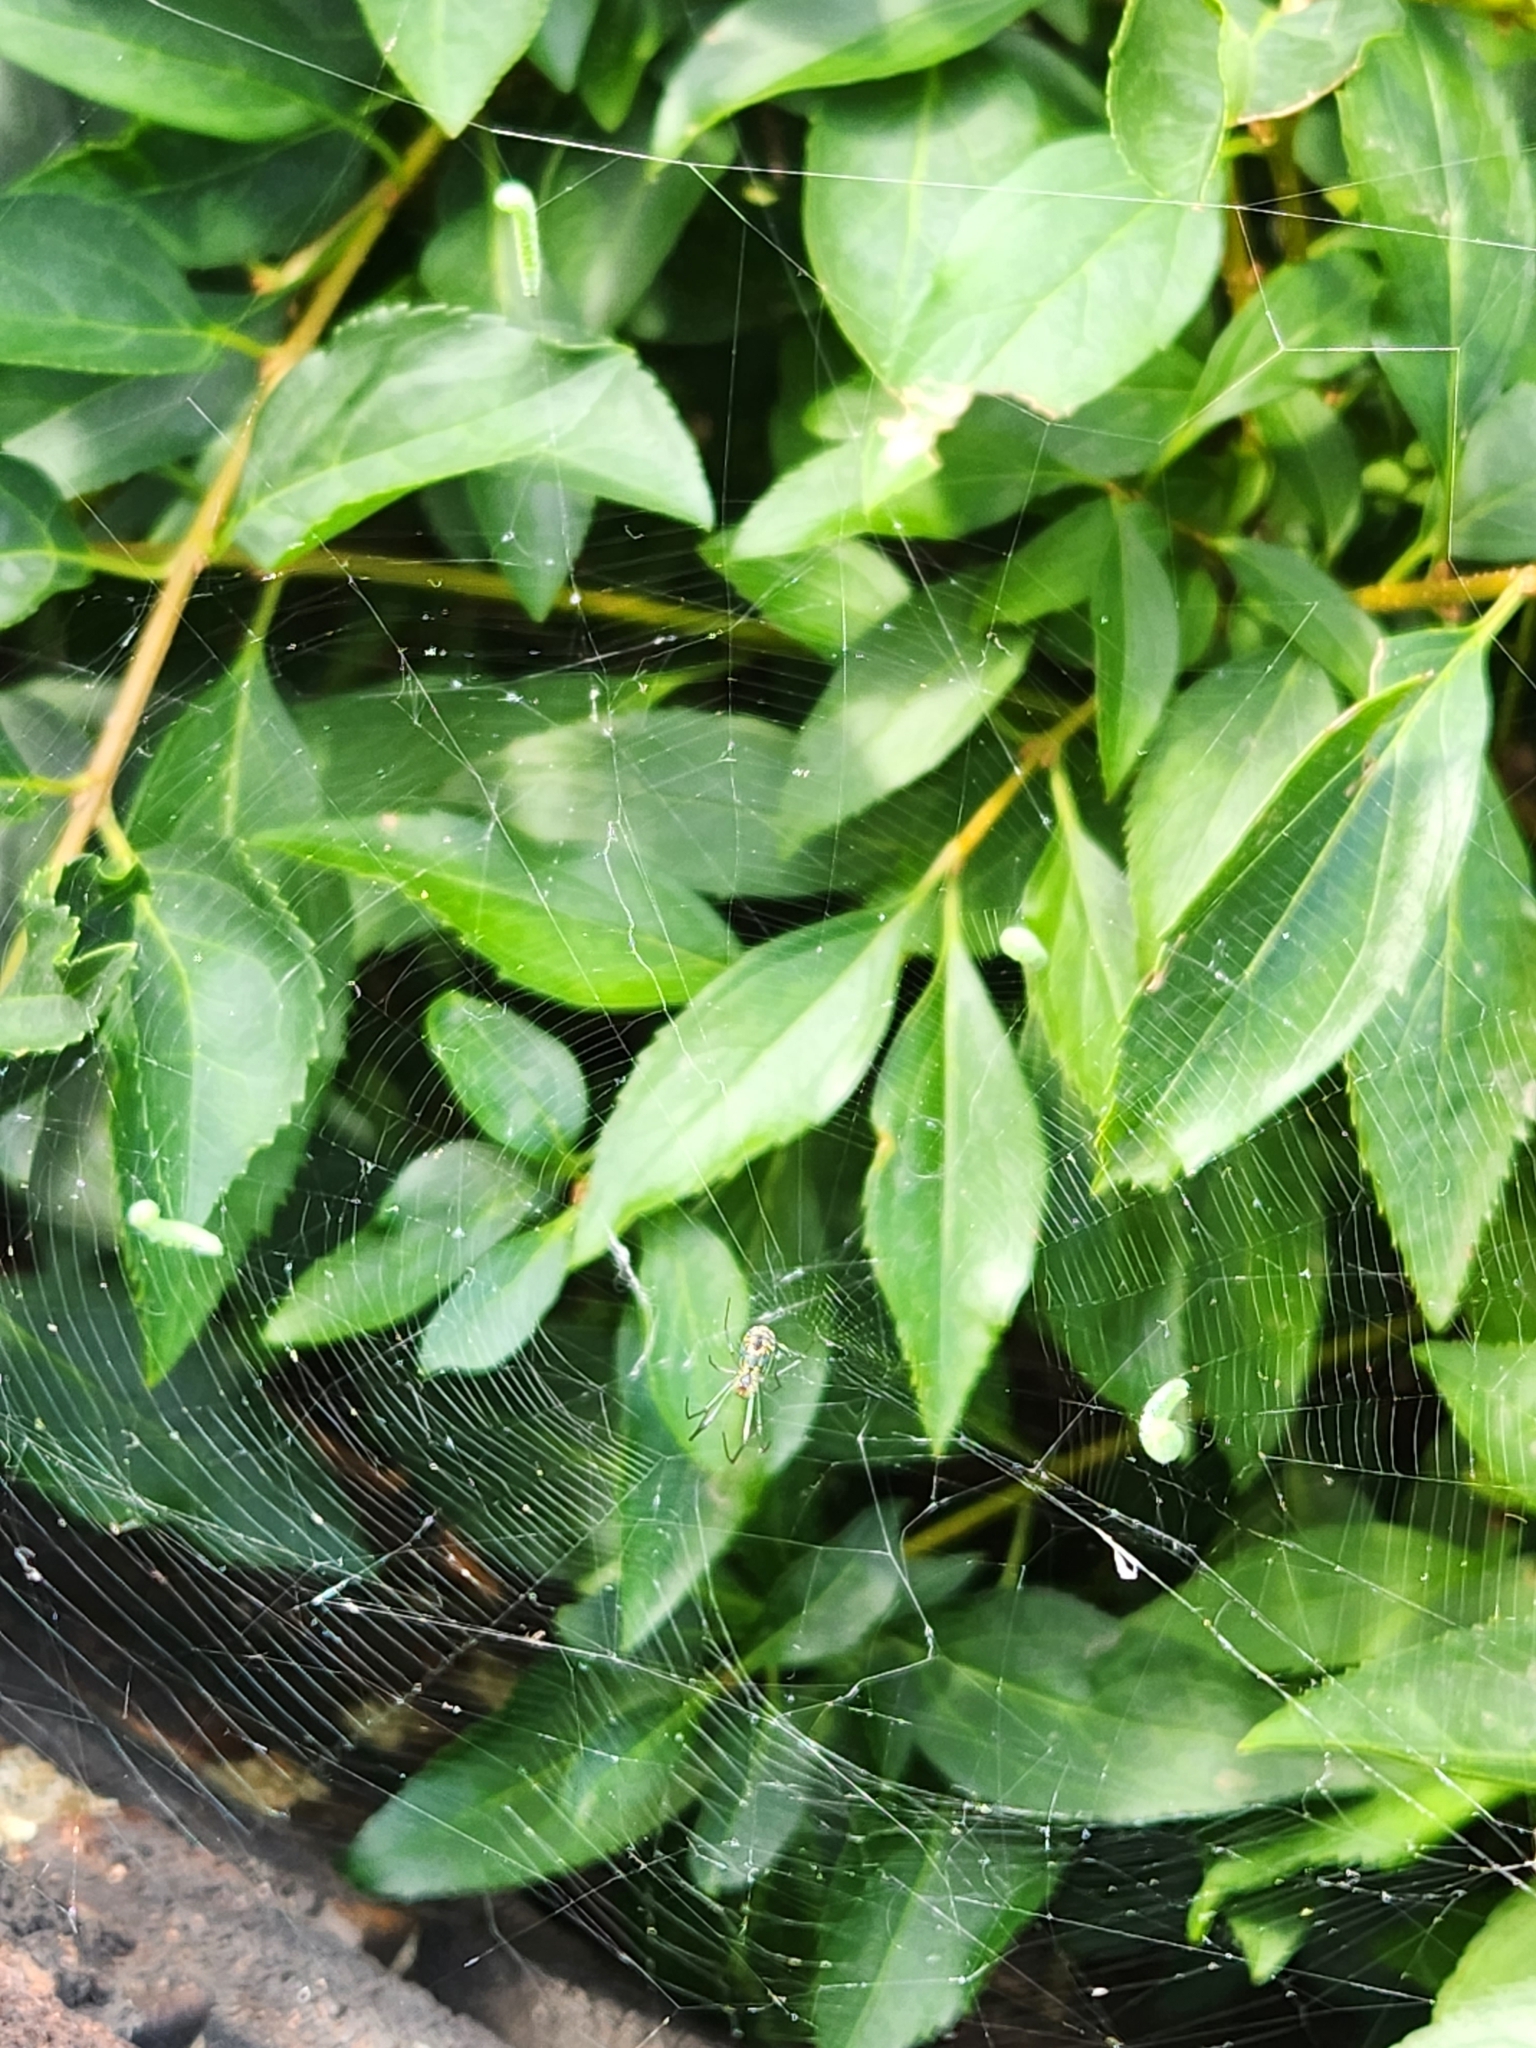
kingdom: Animalia
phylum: Arthropoda
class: Arachnida
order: Araneae
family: Tetragnathidae
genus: Leucauge
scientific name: Leucauge venusta
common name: Longjawed orb weavers
